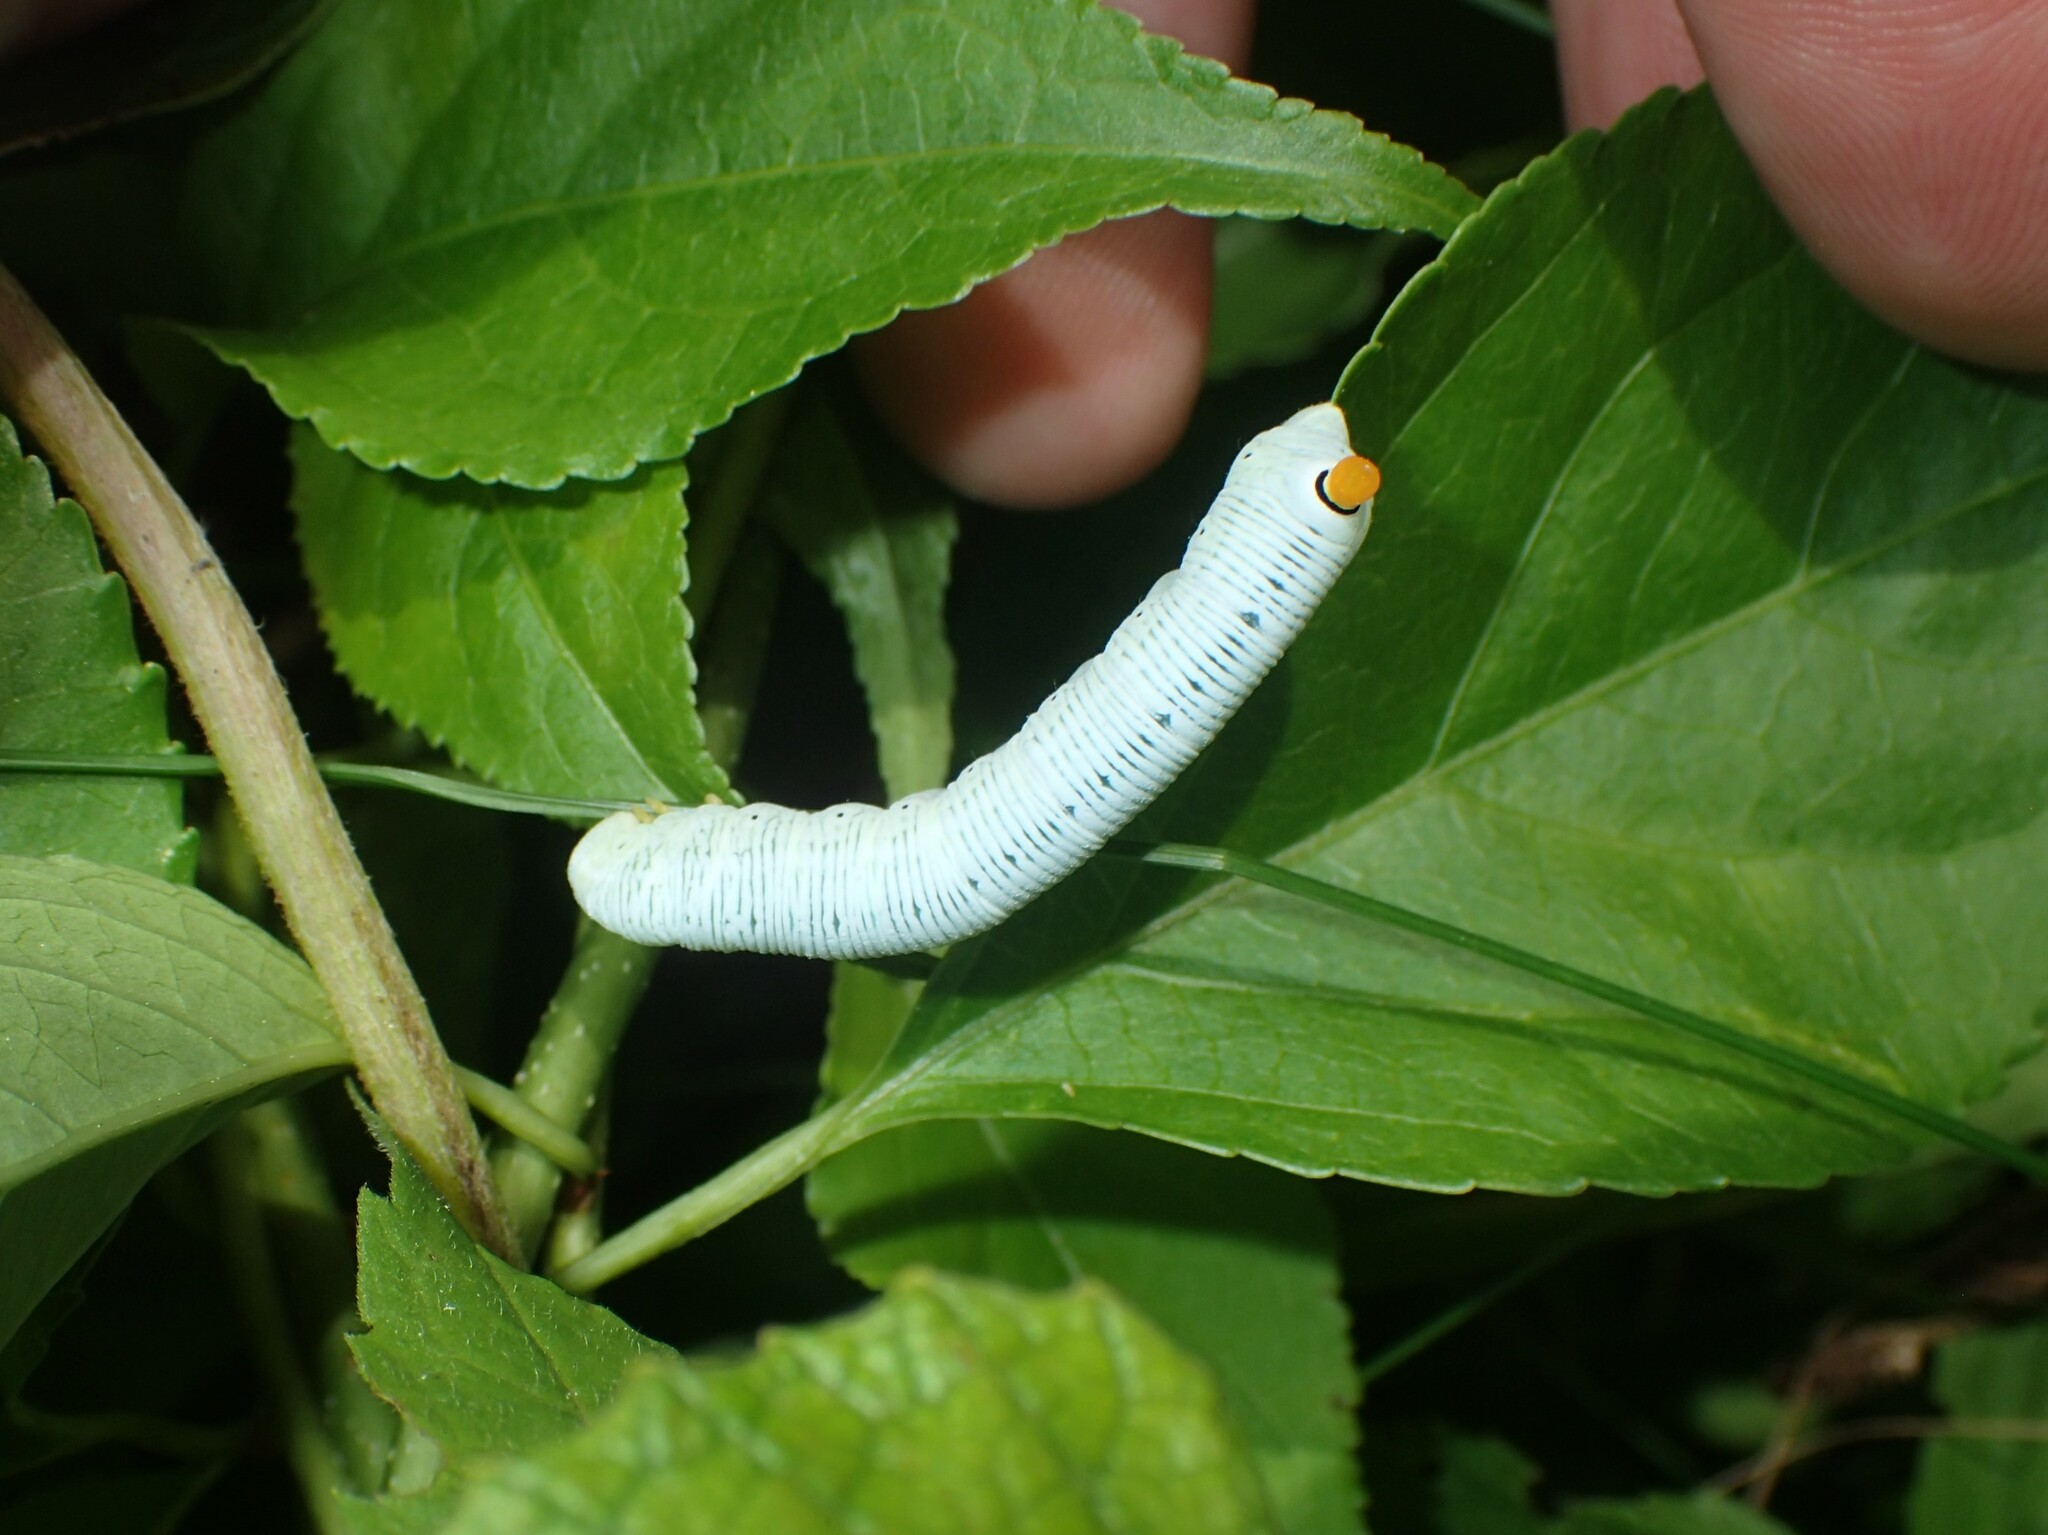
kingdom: Animalia
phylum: Arthropoda
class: Insecta
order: Lepidoptera
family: Sphingidae
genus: Sphecodina
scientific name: Sphecodina abbottii
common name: Abbott's sphinx
